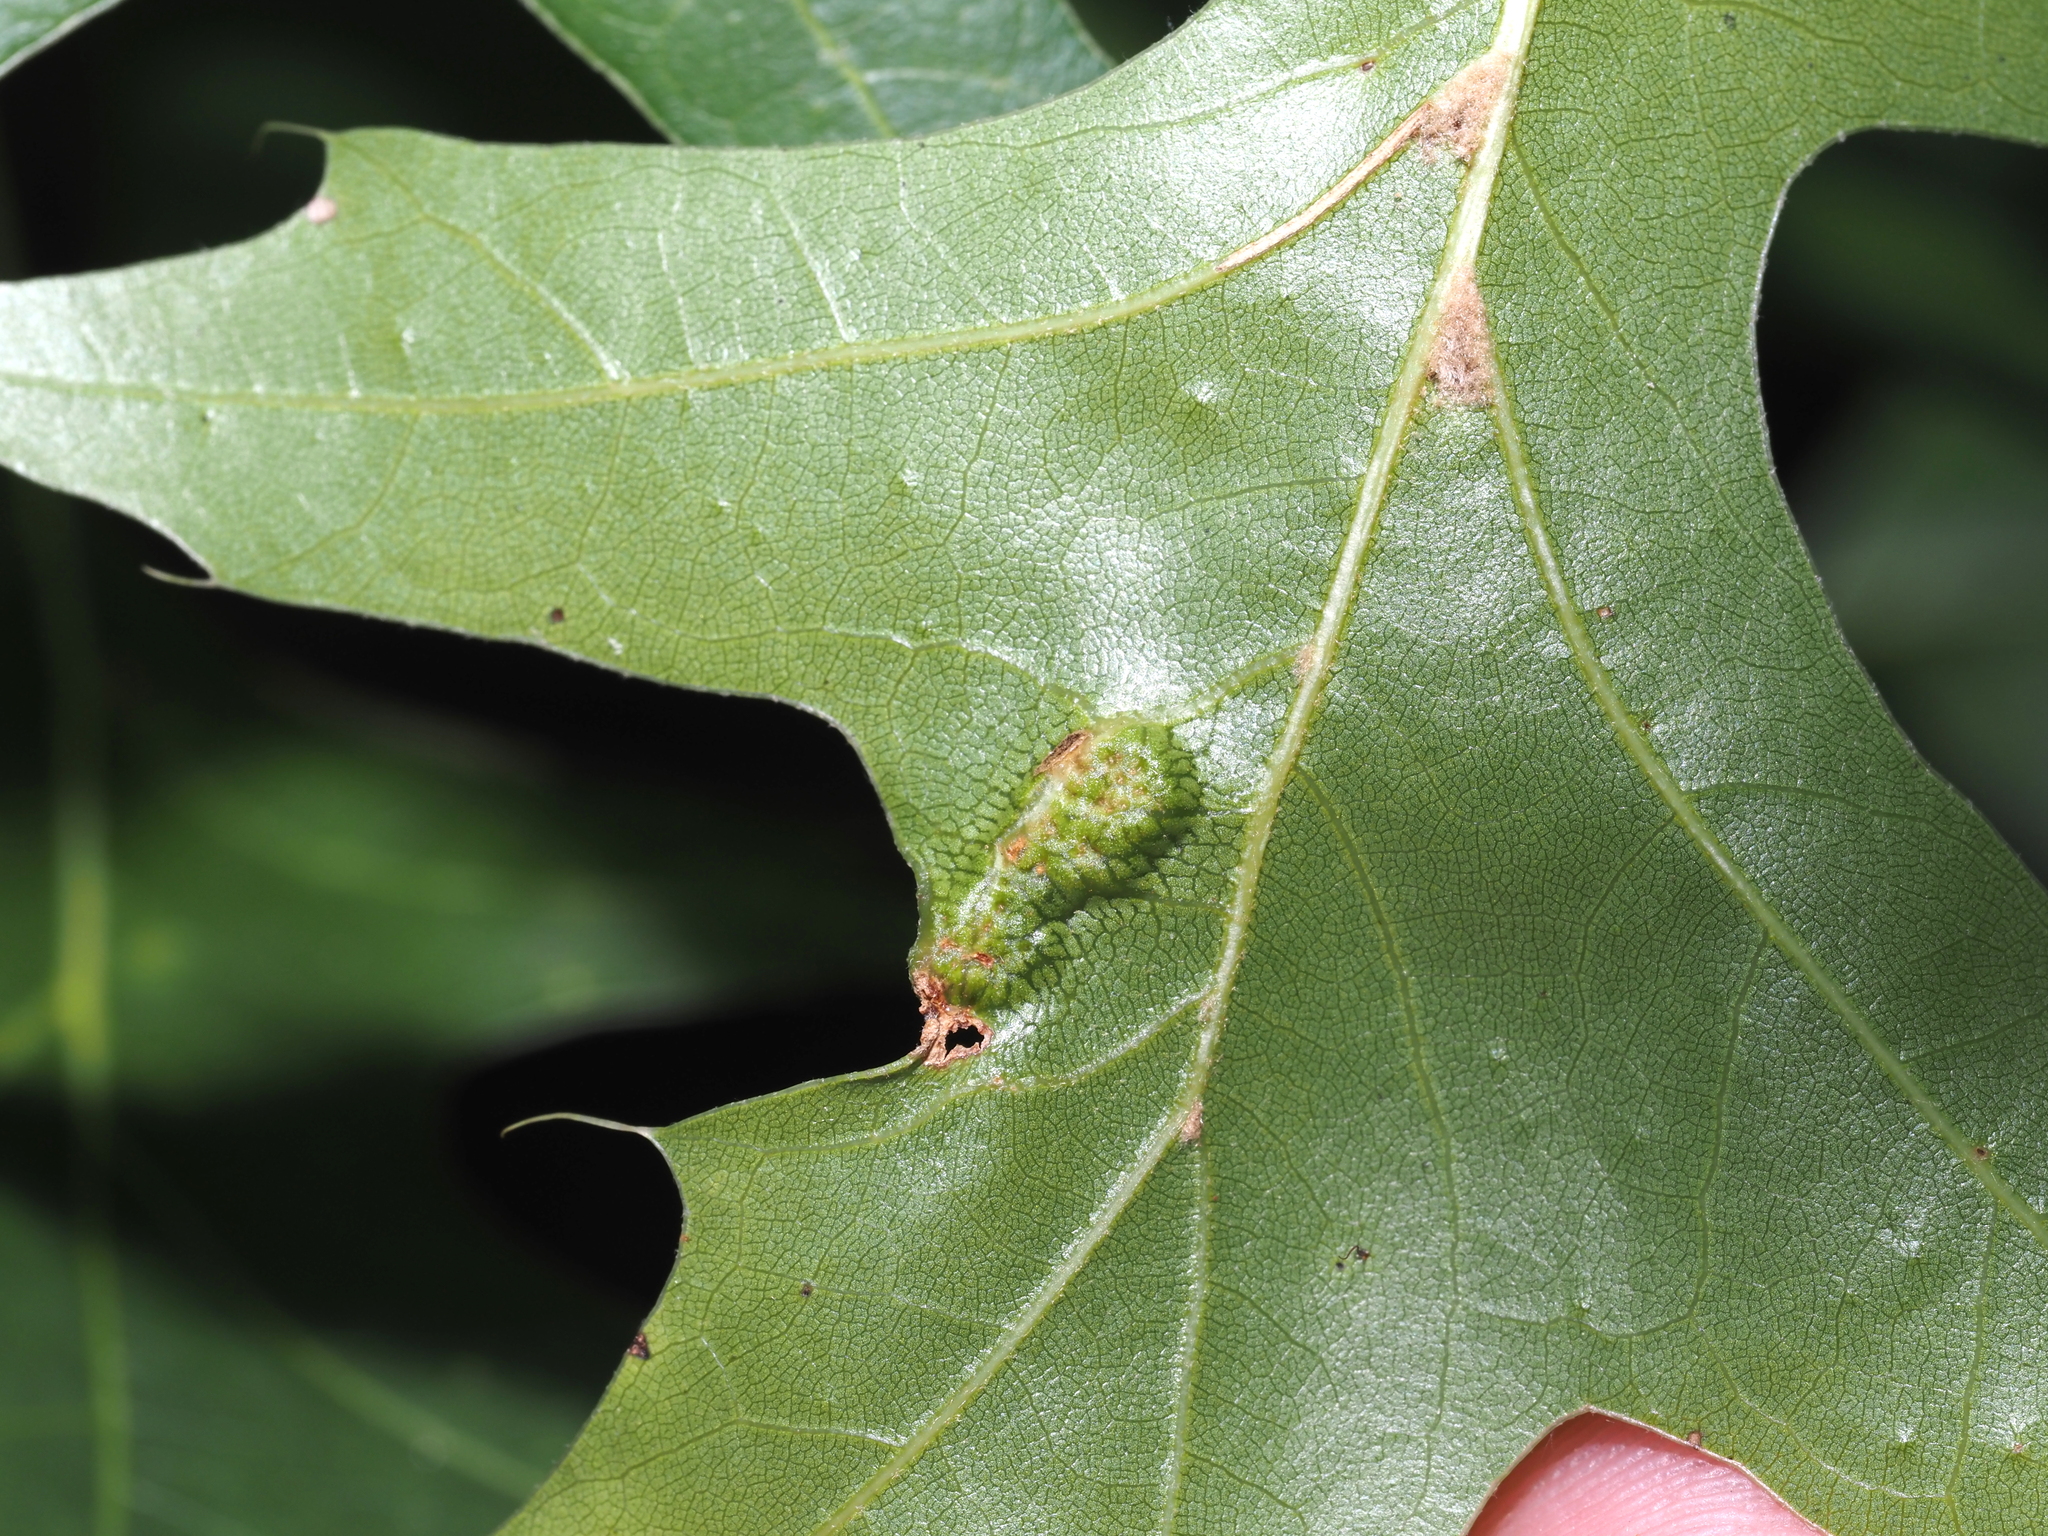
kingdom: Animalia
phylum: Arthropoda
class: Insecta
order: Hymenoptera
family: Cynipidae
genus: Callirhytis
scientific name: Callirhytis
